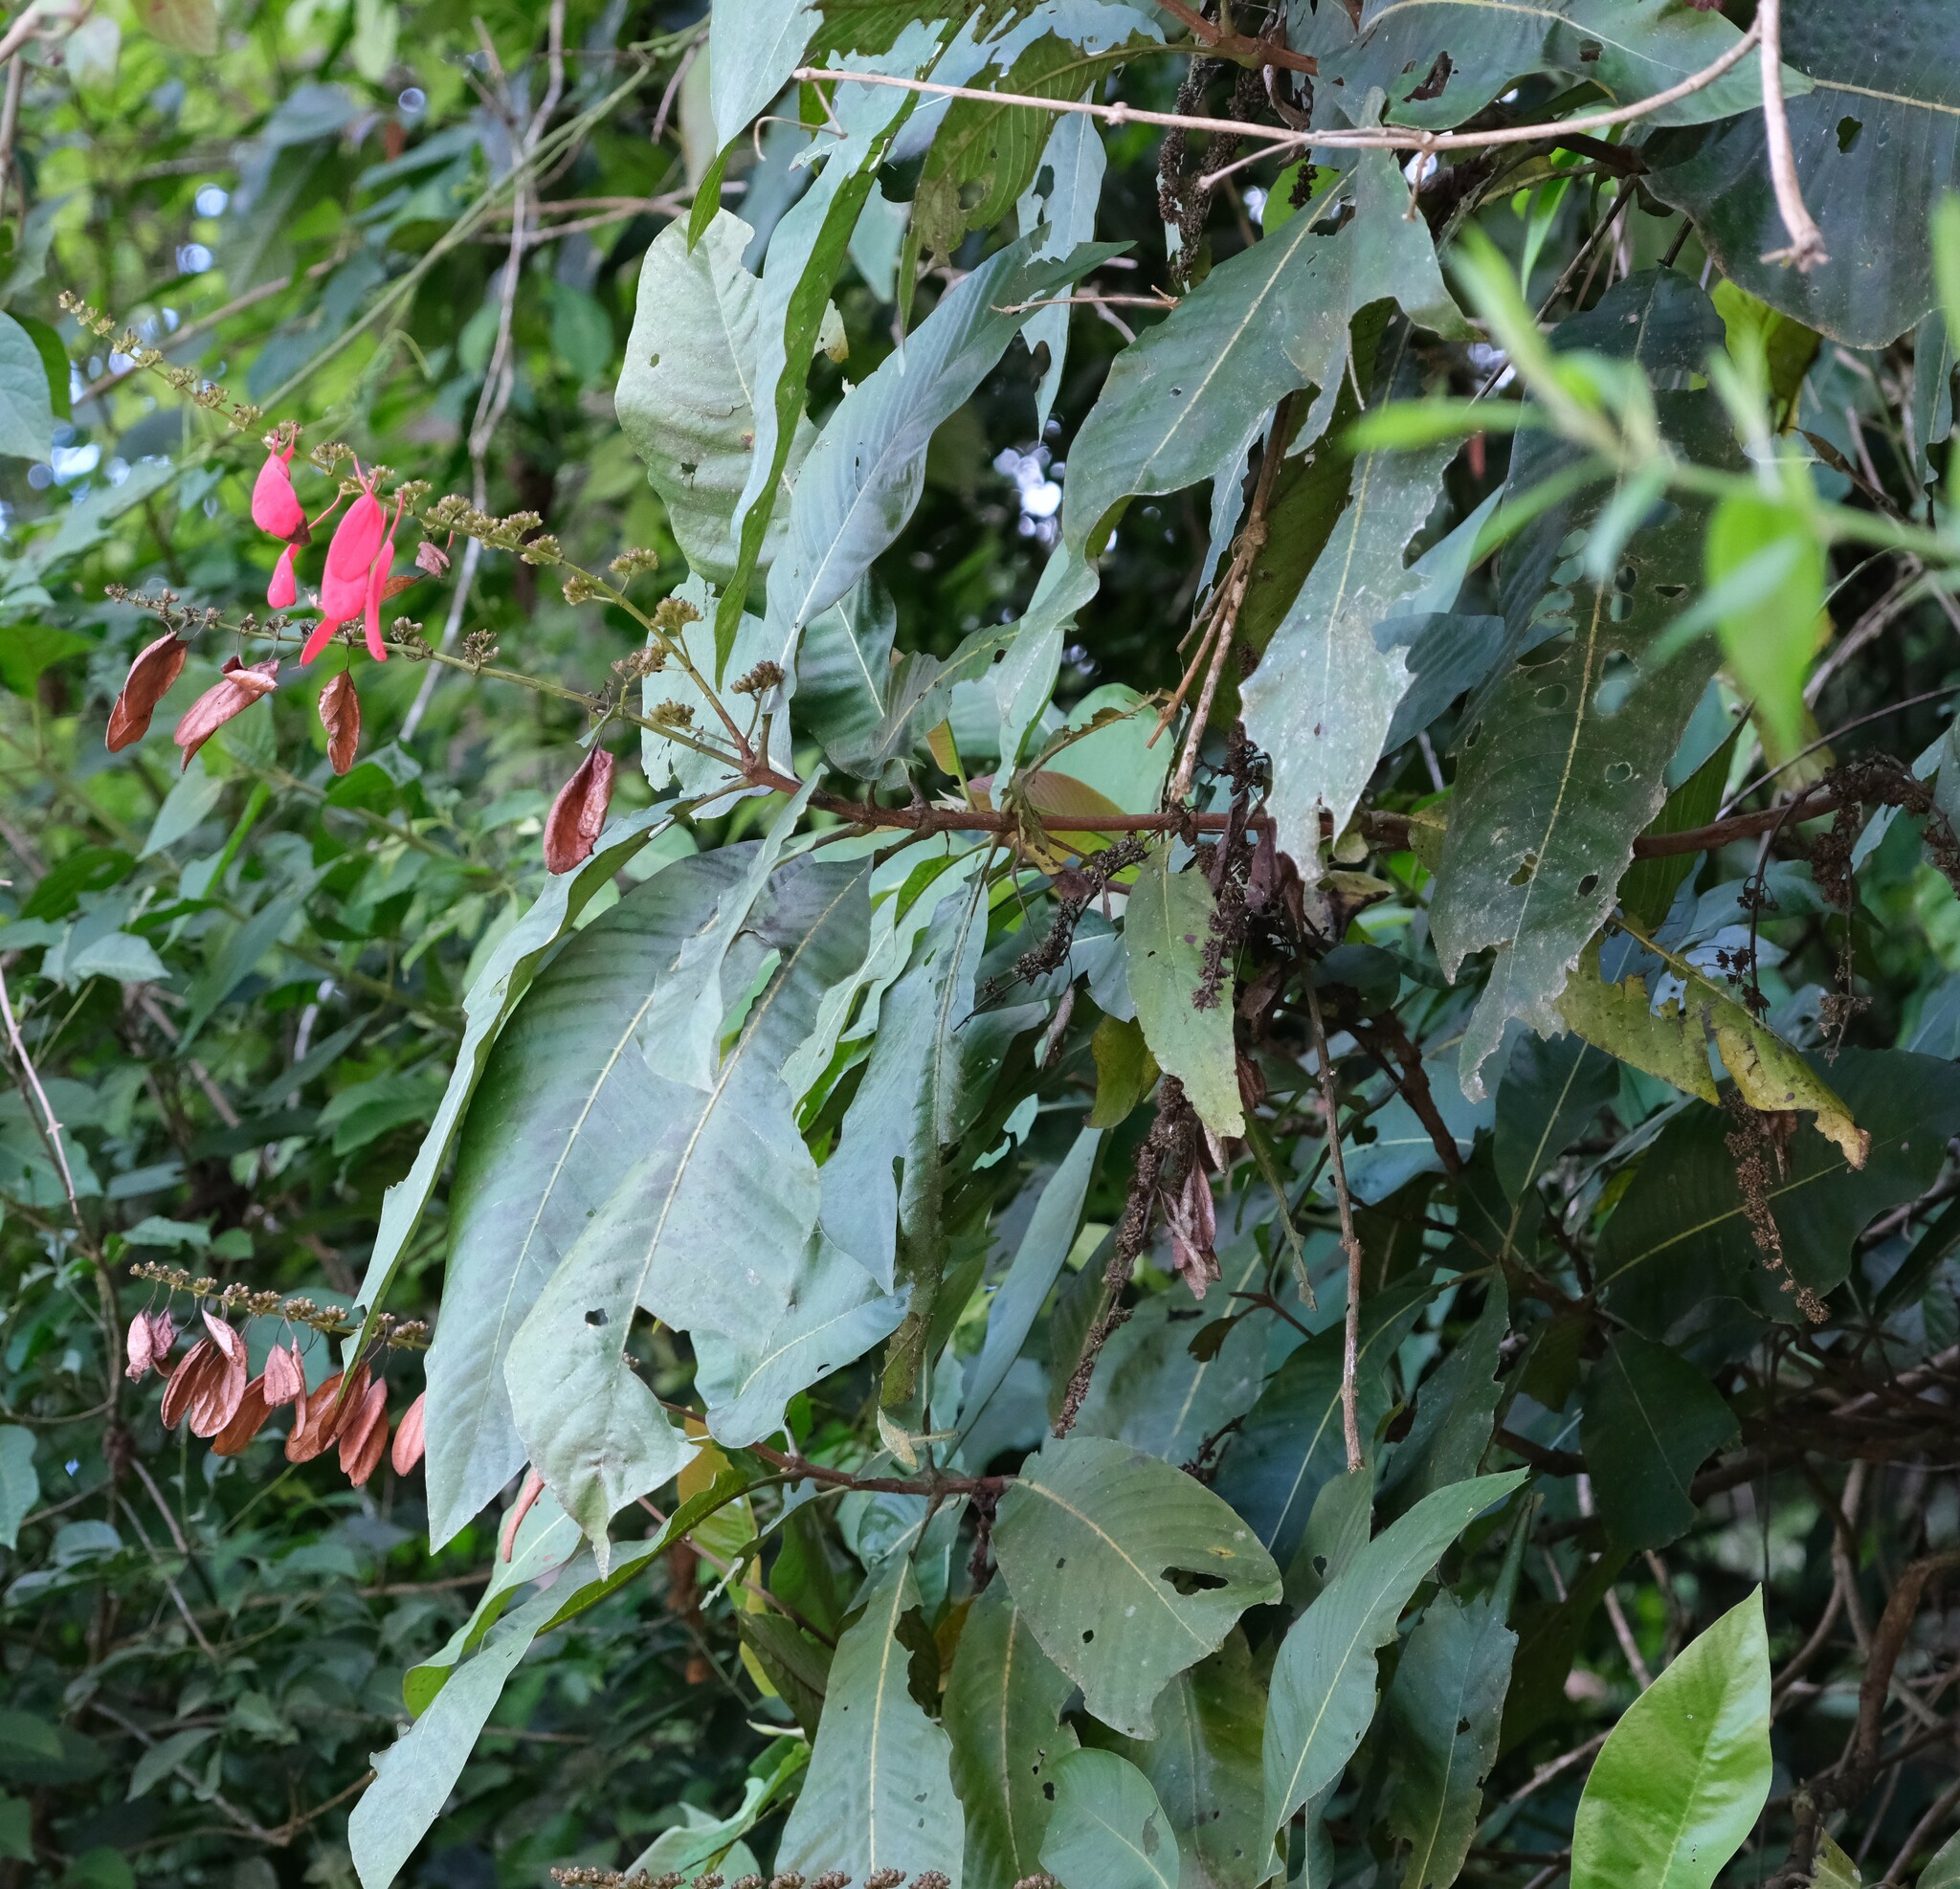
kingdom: Plantae
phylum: Tracheophyta
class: Magnoliopsida
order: Gentianales
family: Rubiaceae
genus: Warszewiczia
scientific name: Warszewiczia coccinea
